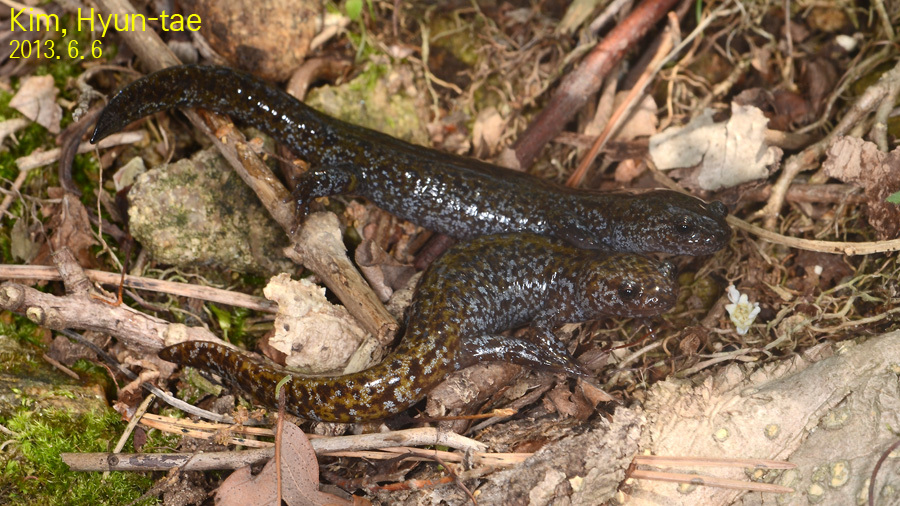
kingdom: Animalia
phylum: Chordata
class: Amphibia
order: Caudata
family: Hynobiidae
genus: Hynobius
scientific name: Hynobius leechii
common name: Gensan salamander
